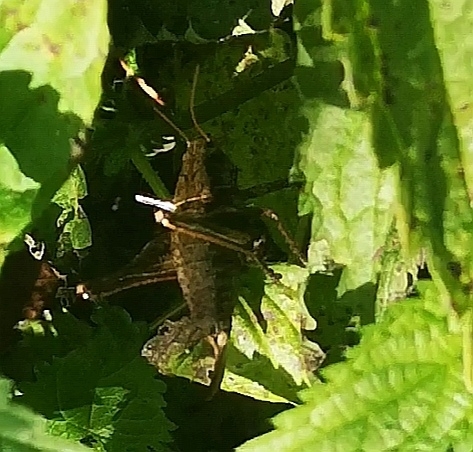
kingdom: Animalia
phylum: Arthropoda
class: Insecta
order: Orthoptera
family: Tettigoniidae
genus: Pholidoptera
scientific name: Pholidoptera griseoaptera
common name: Dark bush-cricket
